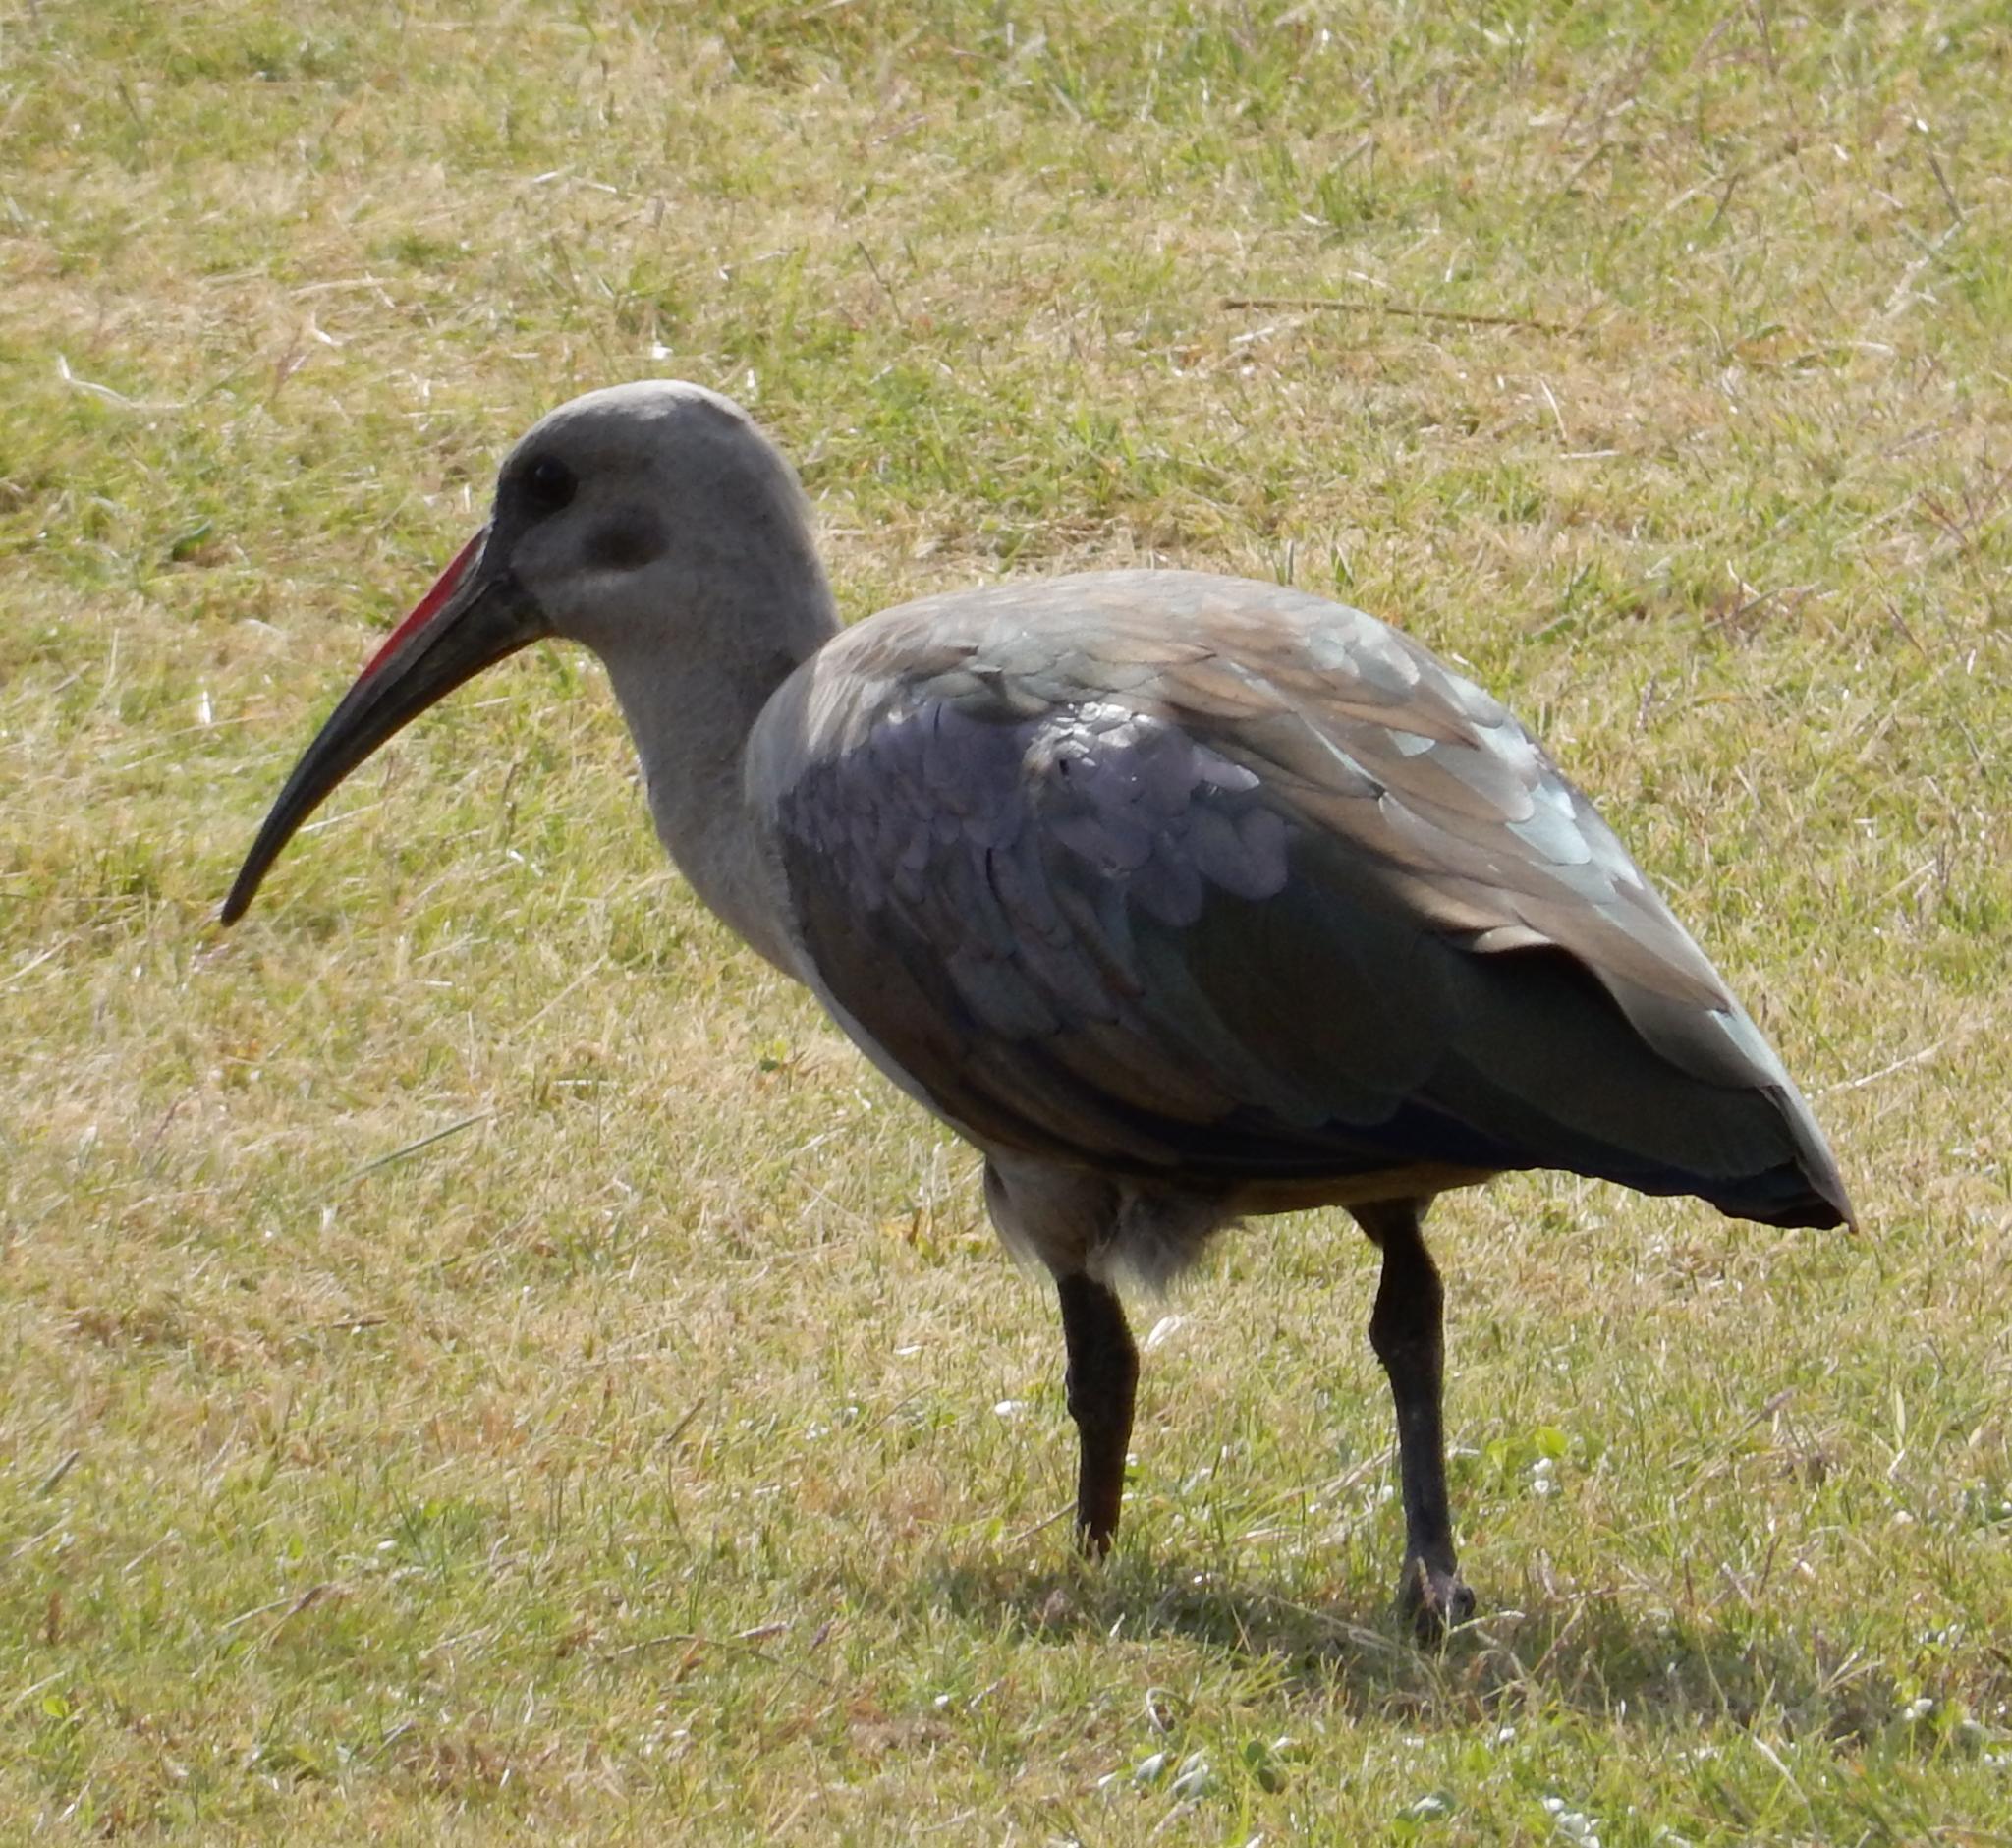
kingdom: Animalia
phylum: Chordata
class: Aves
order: Pelecaniformes
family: Threskiornithidae
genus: Bostrychia
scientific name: Bostrychia hagedash
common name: Hadada ibis
